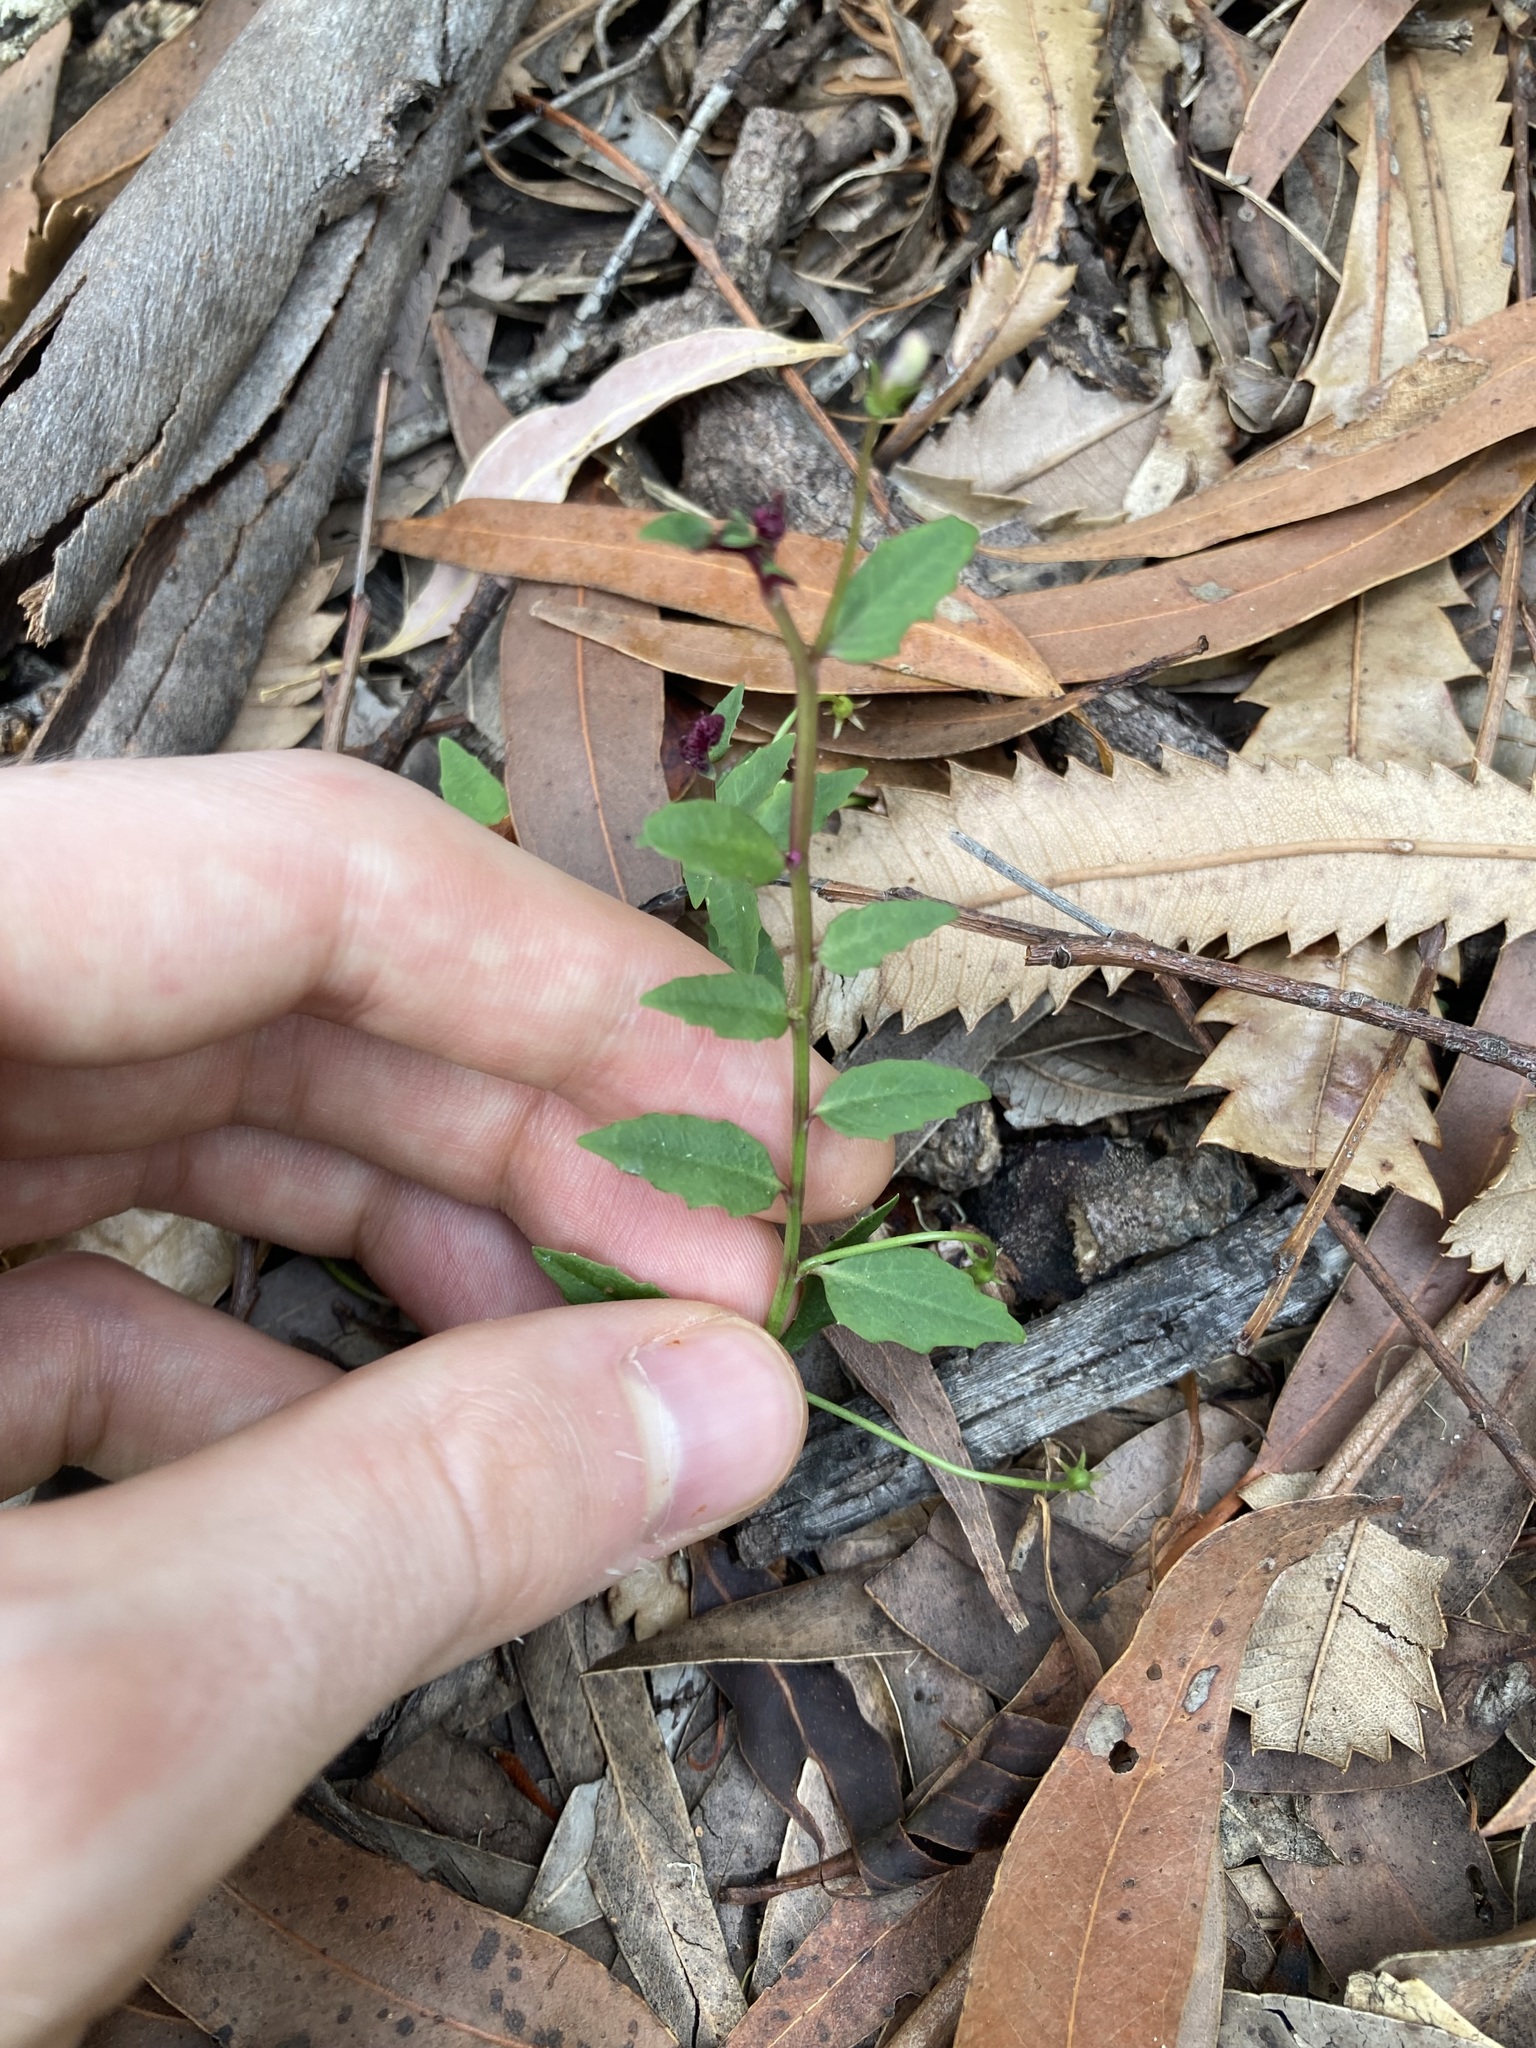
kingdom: Plantae
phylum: Tracheophyta
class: Magnoliopsida
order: Asterales
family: Campanulaceae
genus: Lobelia
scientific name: Lobelia purpurascens
